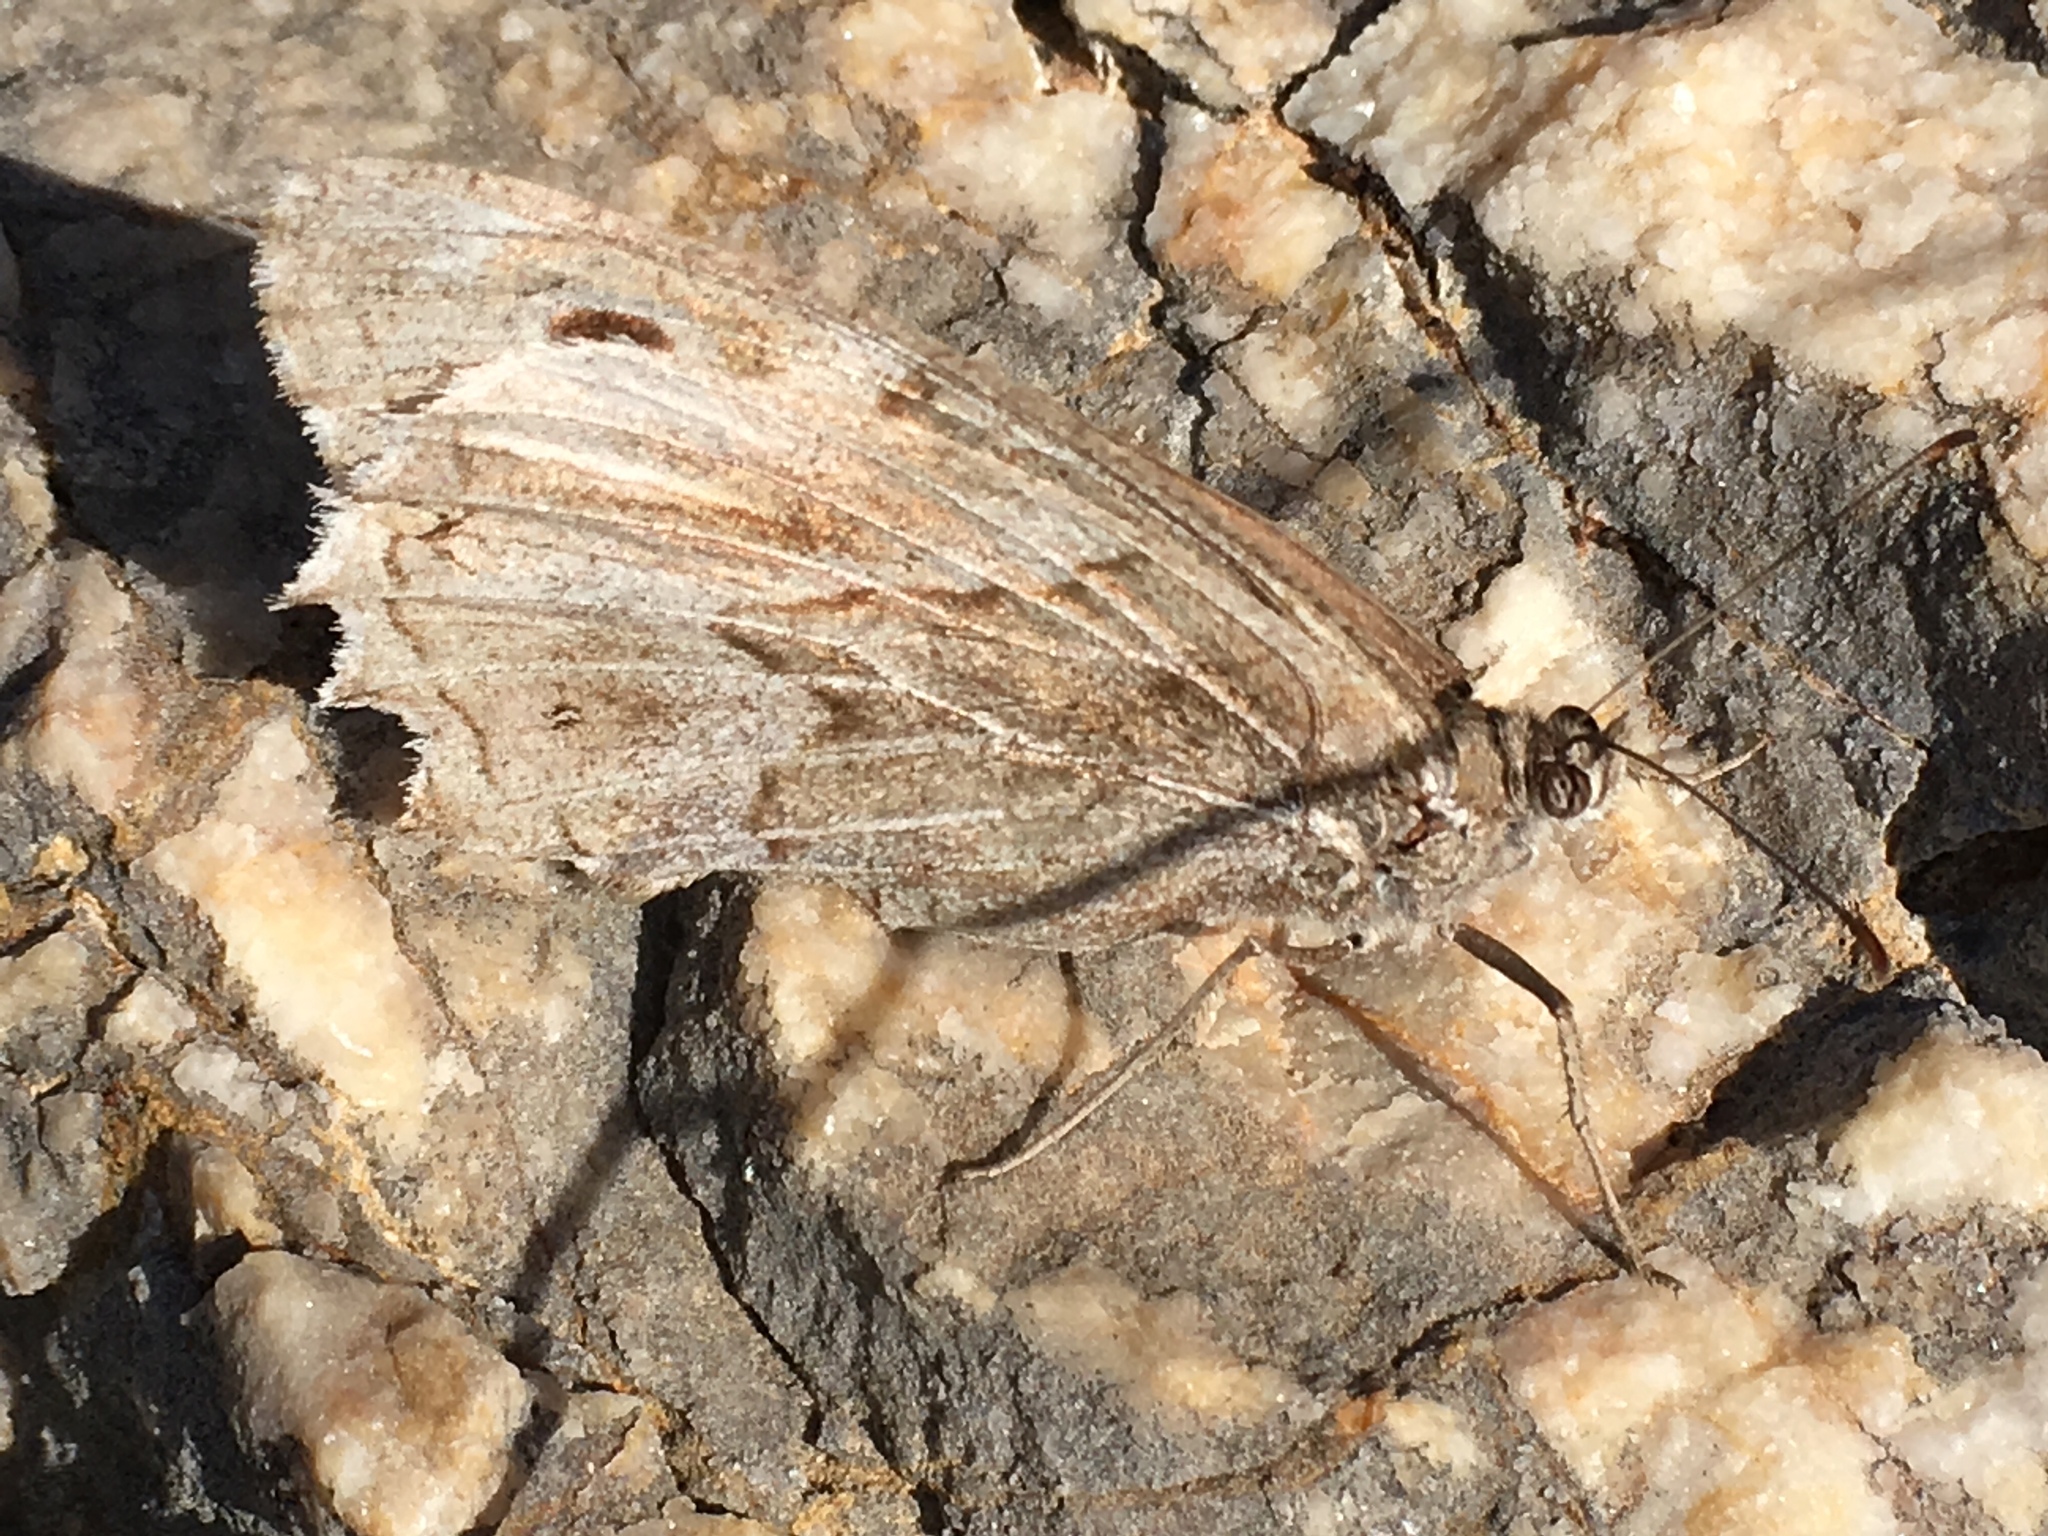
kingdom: Animalia
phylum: Arthropoda
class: Insecta
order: Lepidoptera
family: Nymphalidae
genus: Hipparchia
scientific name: Hipparchia fidia
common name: Striped grayling
